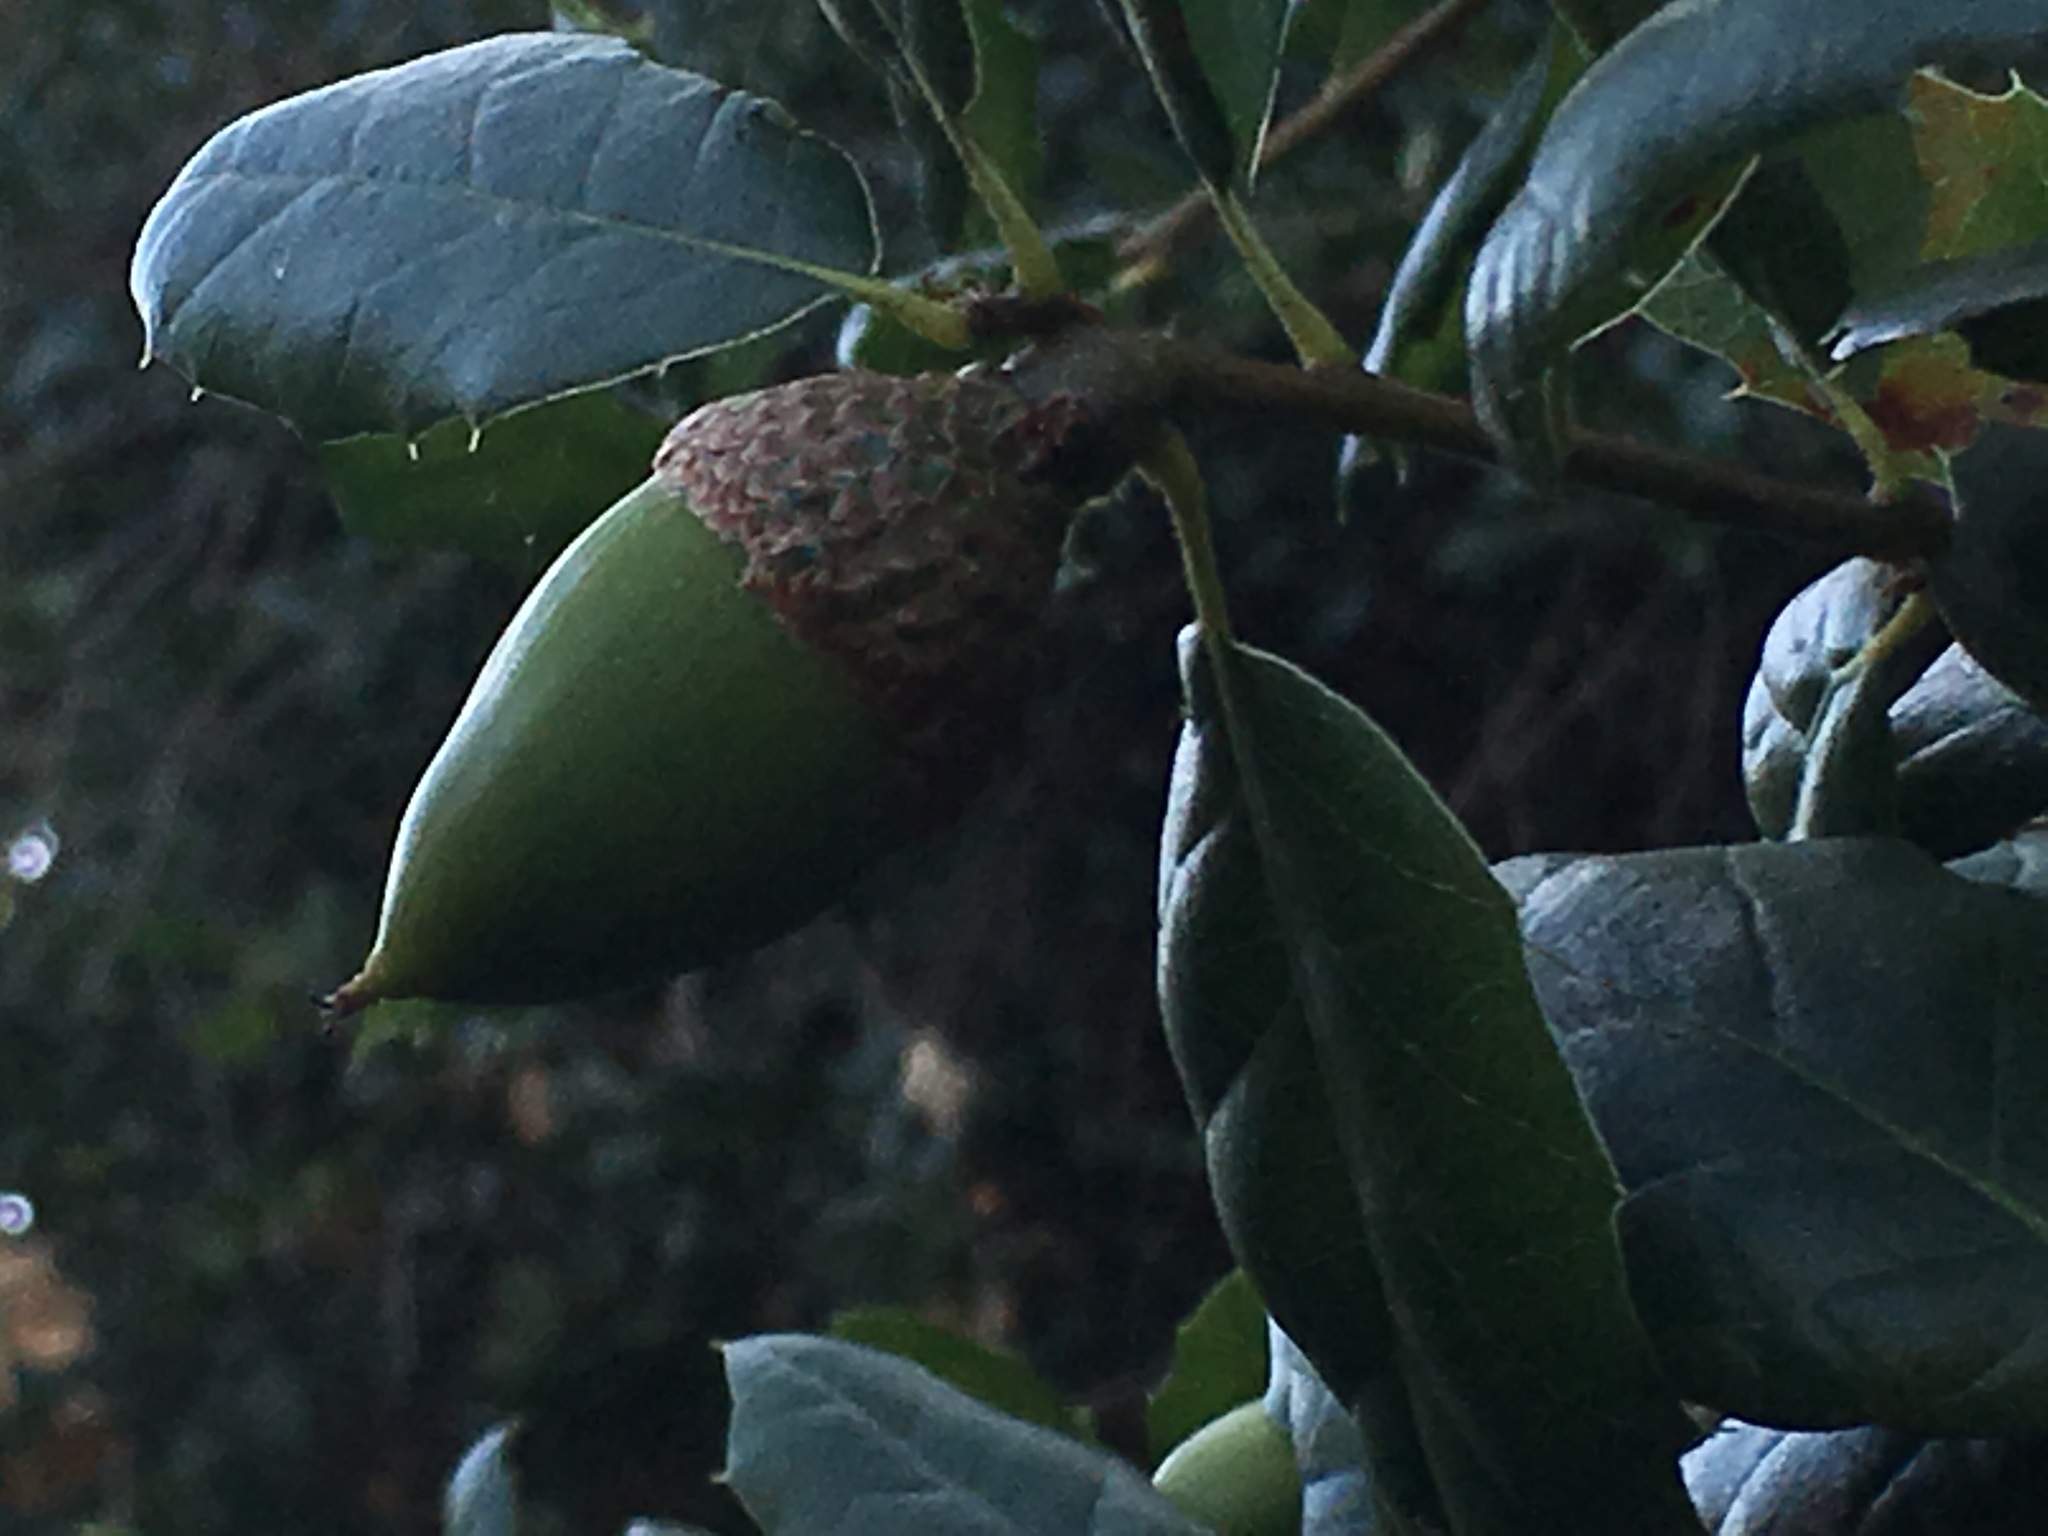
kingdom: Plantae
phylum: Tracheophyta
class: Magnoliopsida
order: Fagales
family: Fagaceae
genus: Quercus
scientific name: Quercus agrifolia
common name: California live oak
